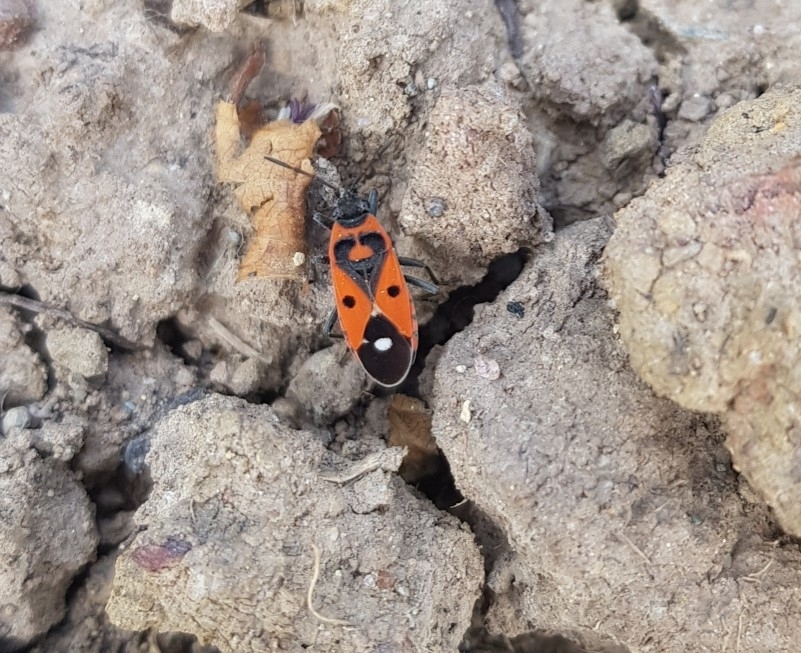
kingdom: Animalia
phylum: Arthropoda
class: Insecta
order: Hemiptera
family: Lygaeidae
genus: Melanocoryphus
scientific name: Melanocoryphus albomaculatus
